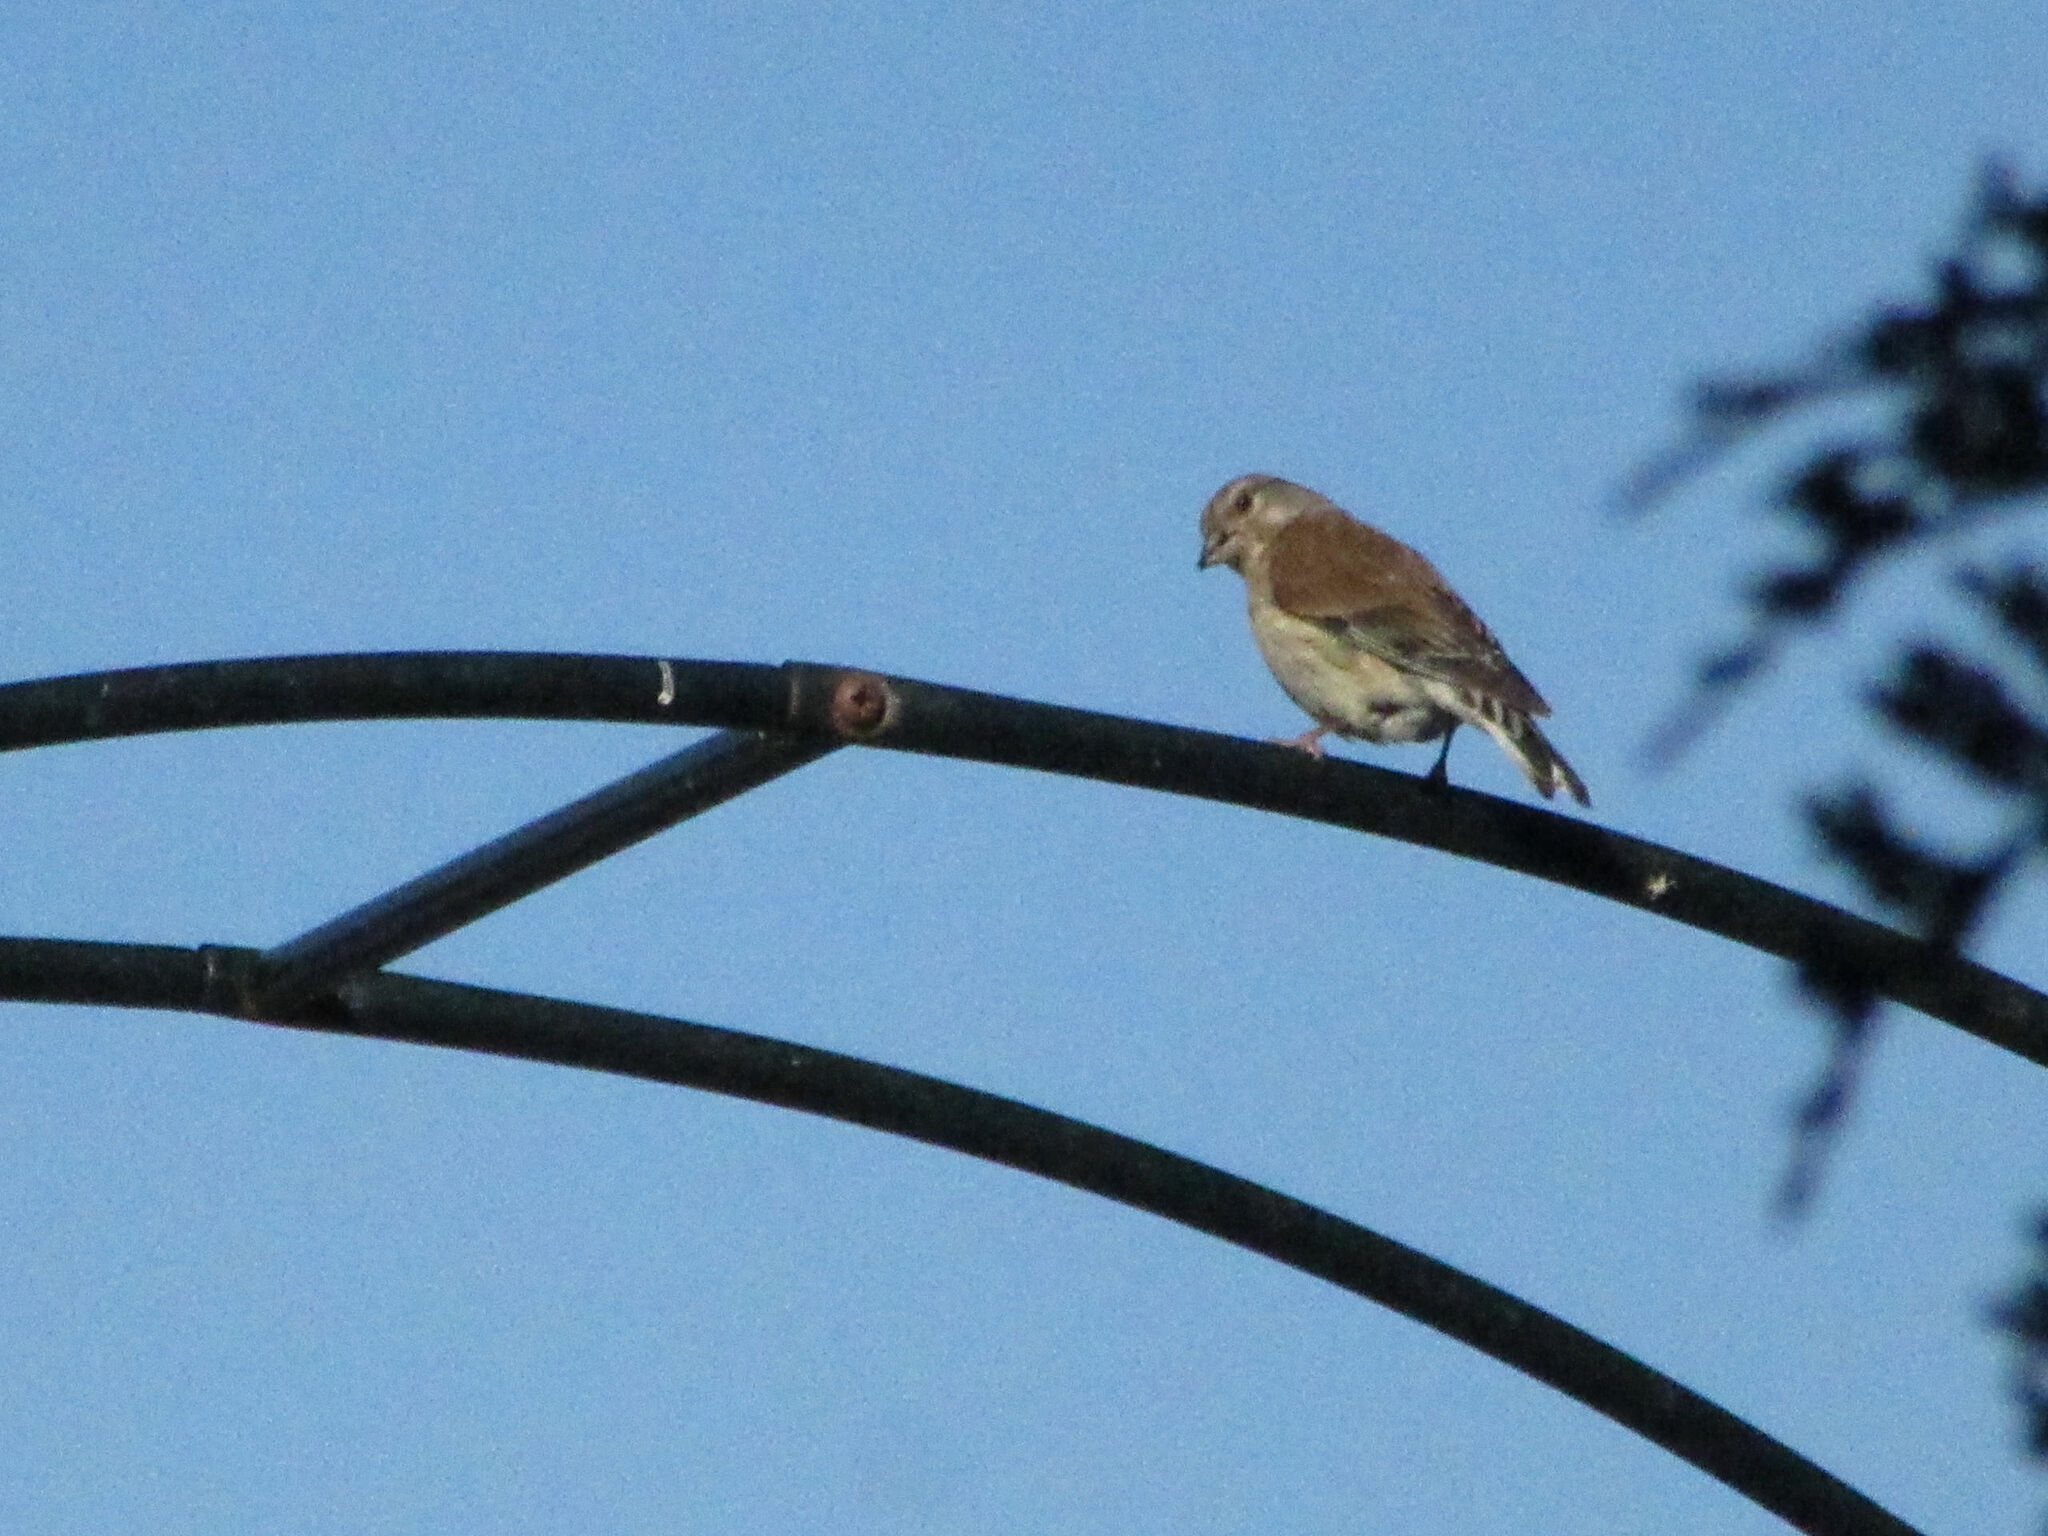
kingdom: Animalia
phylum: Chordata
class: Aves
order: Passeriformes
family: Fringillidae
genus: Linaria
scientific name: Linaria cannabina
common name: Common linnet
